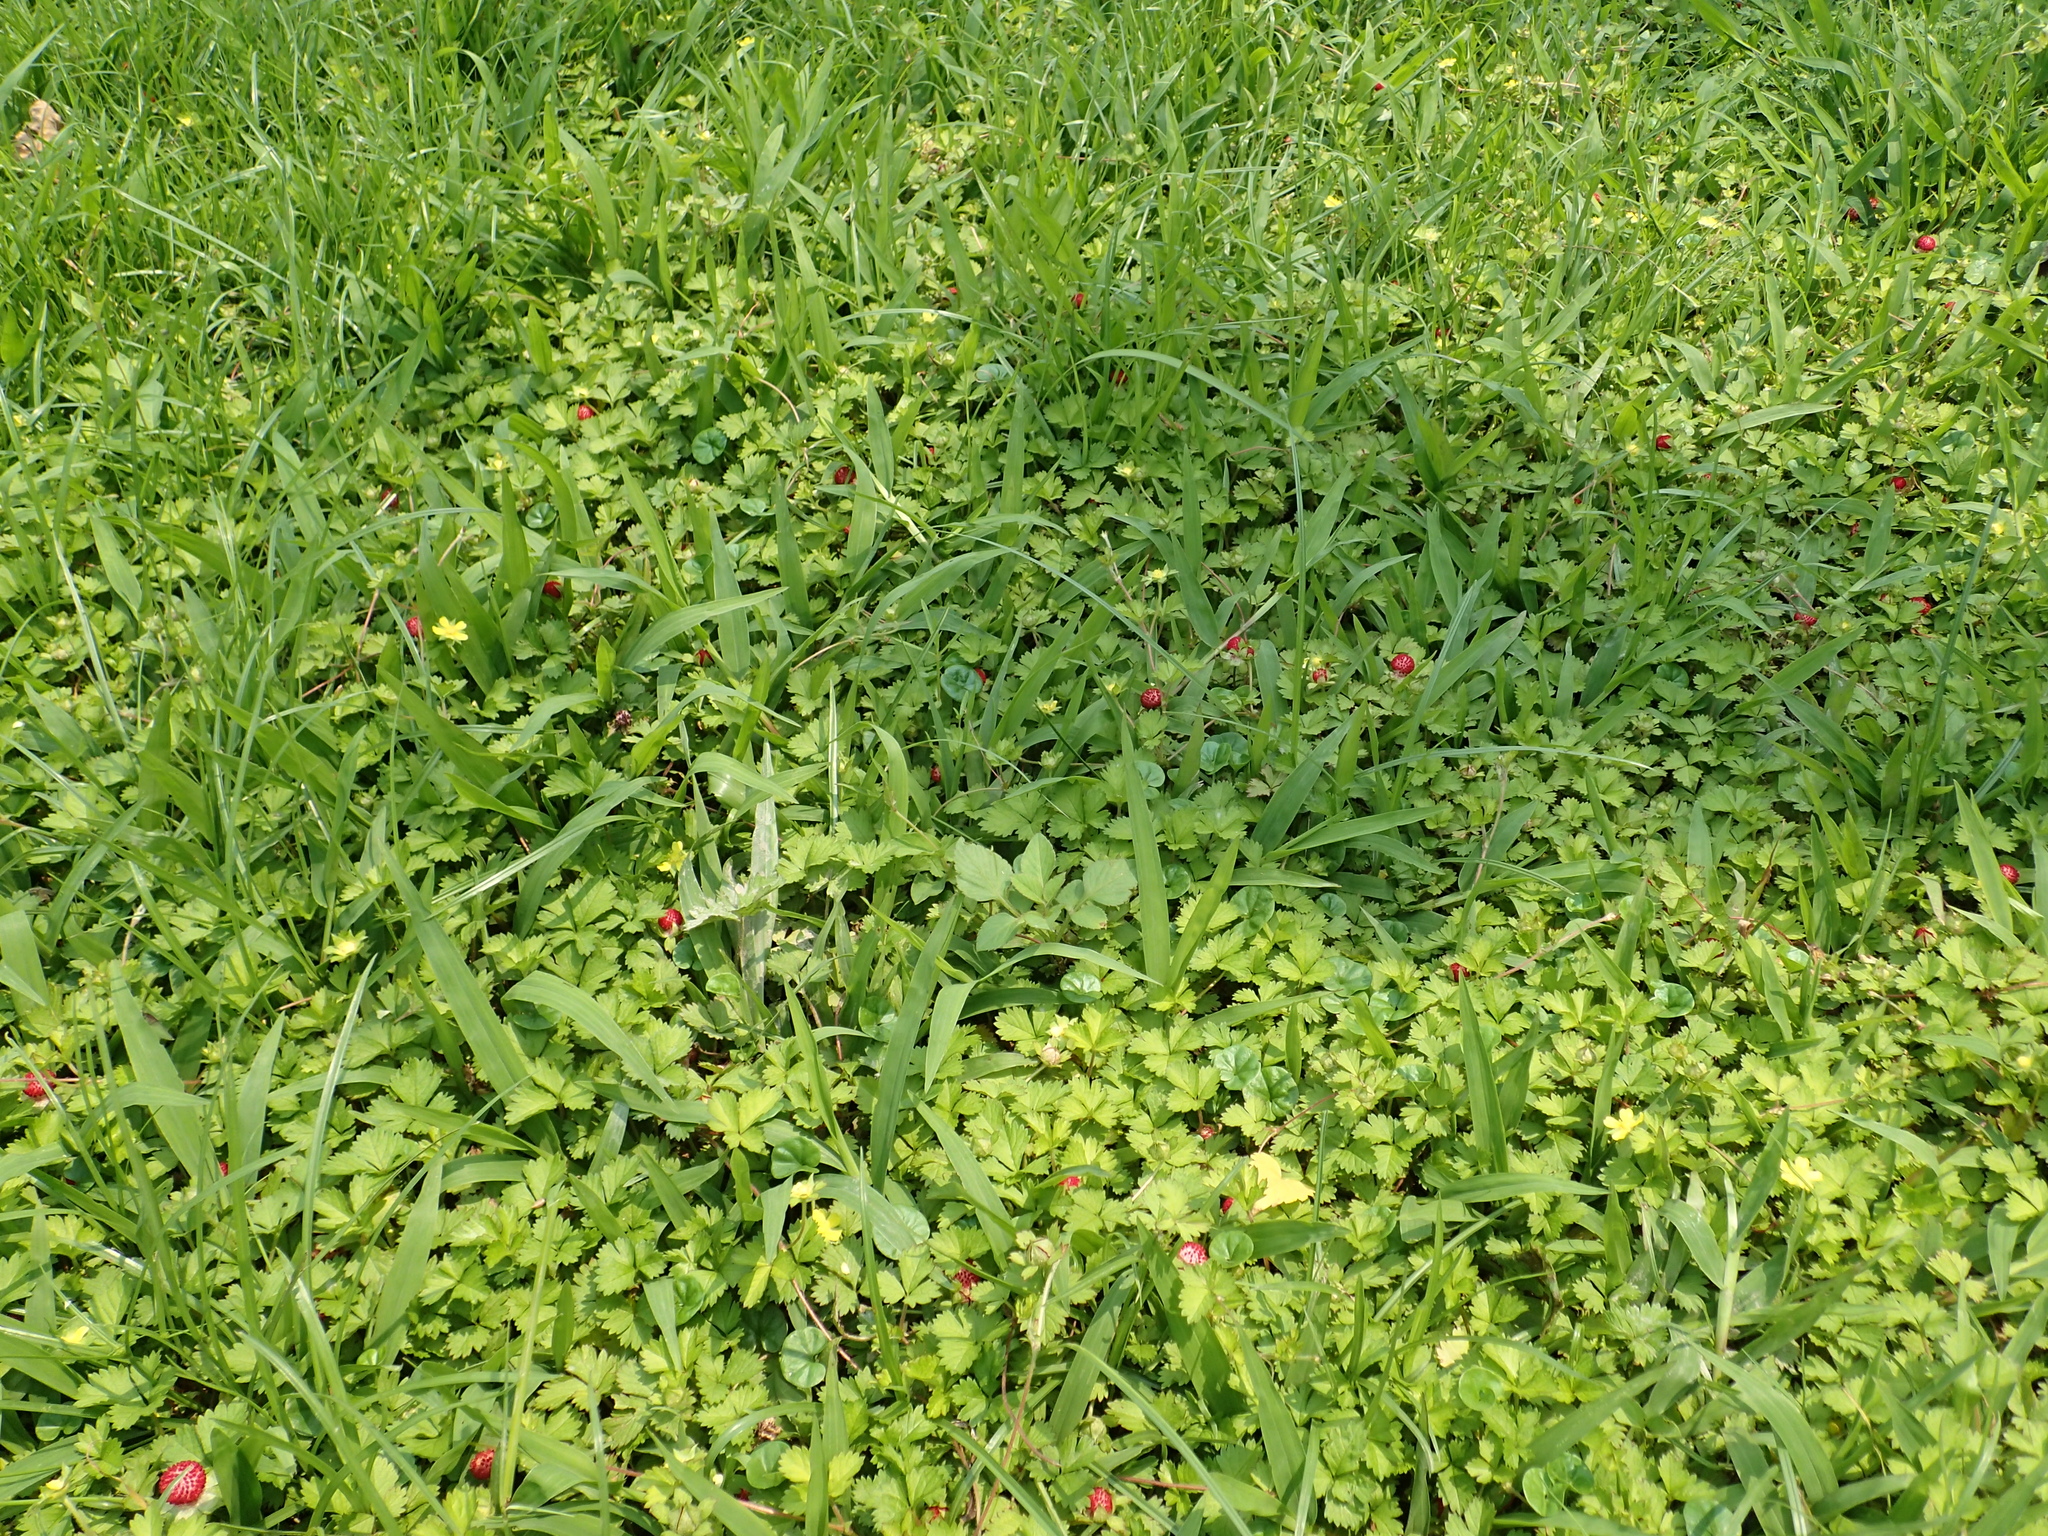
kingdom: Plantae
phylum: Tracheophyta
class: Magnoliopsida
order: Rosales
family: Rosaceae
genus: Potentilla
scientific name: Potentilla wallichiana
